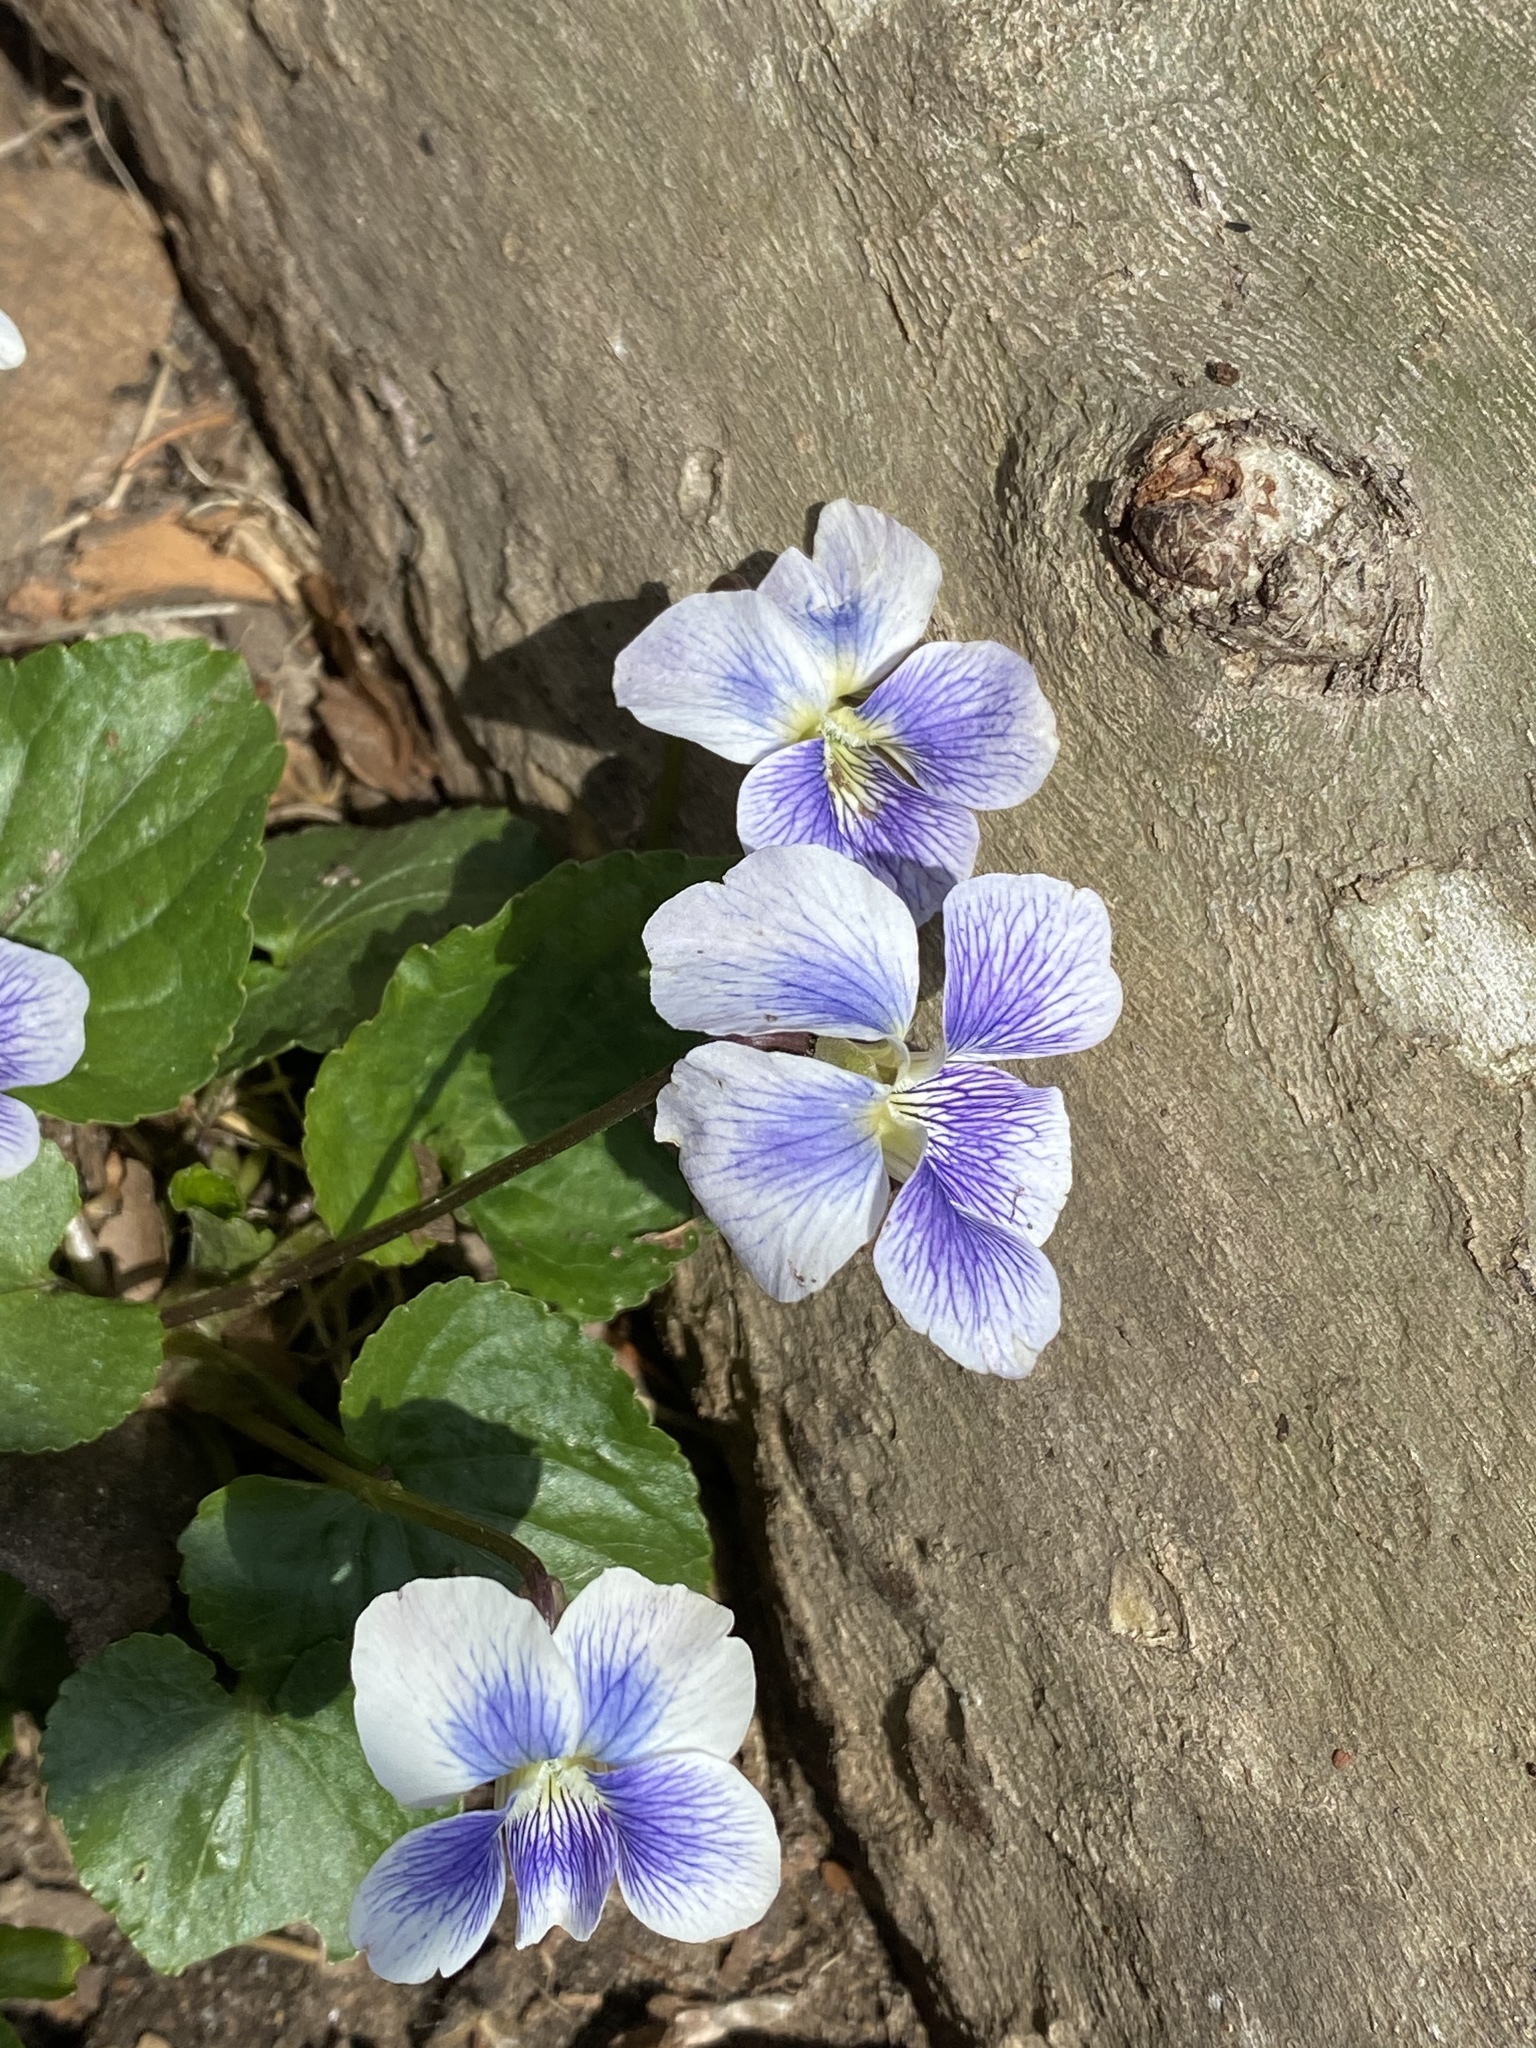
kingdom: Plantae
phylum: Tracheophyta
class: Magnoliopsida
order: Malpighiales
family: Violaceae
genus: Viola
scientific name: Viola sororia
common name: Dooryard violet
